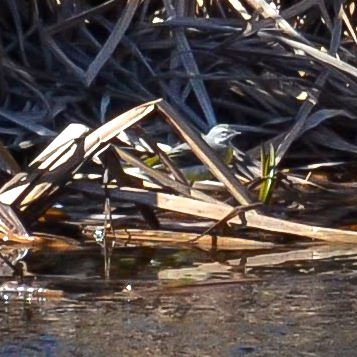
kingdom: Animalia
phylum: Chordata
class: Aves
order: Passeriformes
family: Motacillidae
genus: Motacilla
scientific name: Motacilla cinerea
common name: Grey wagtail
